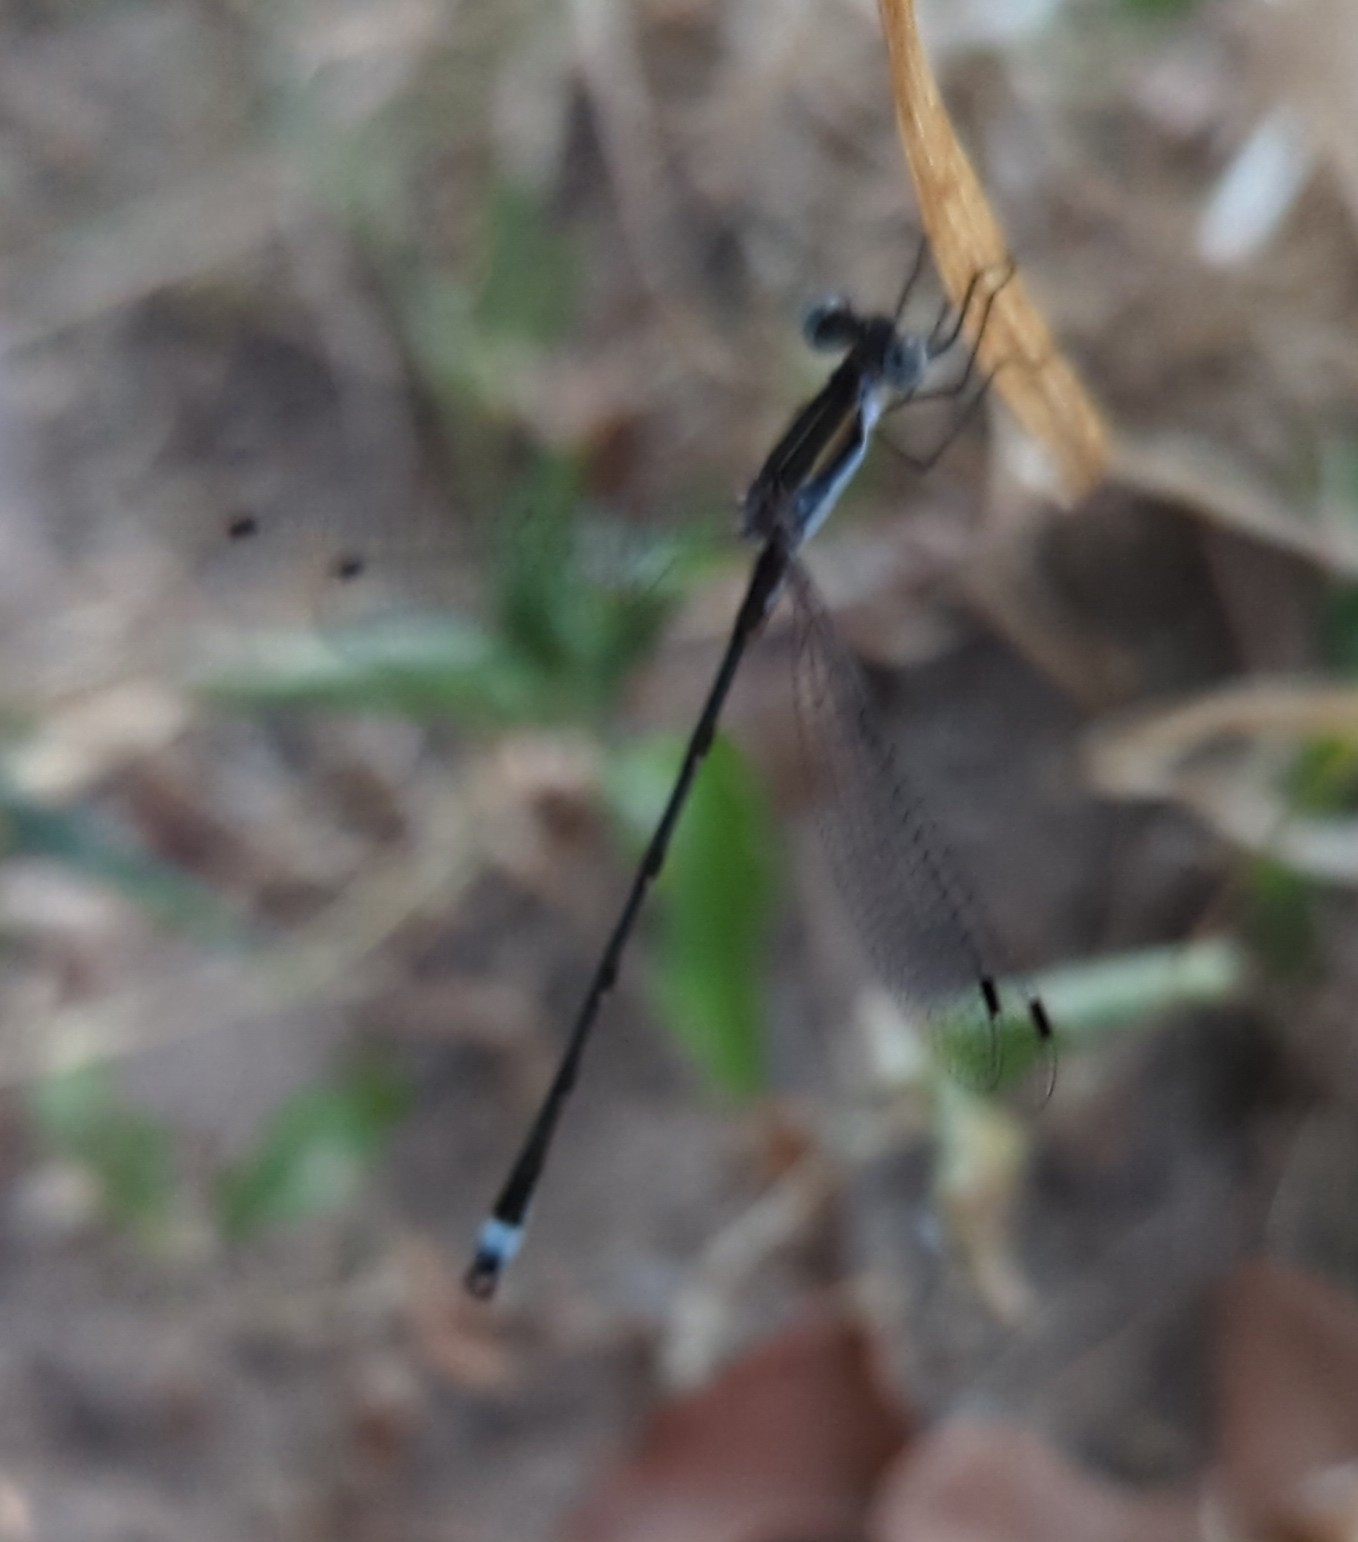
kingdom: Animalia
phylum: Arthropoda
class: Insecta
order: Odonata
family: Lestidae
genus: Lestes
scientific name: Lestes australis
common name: Southern spreadwing
